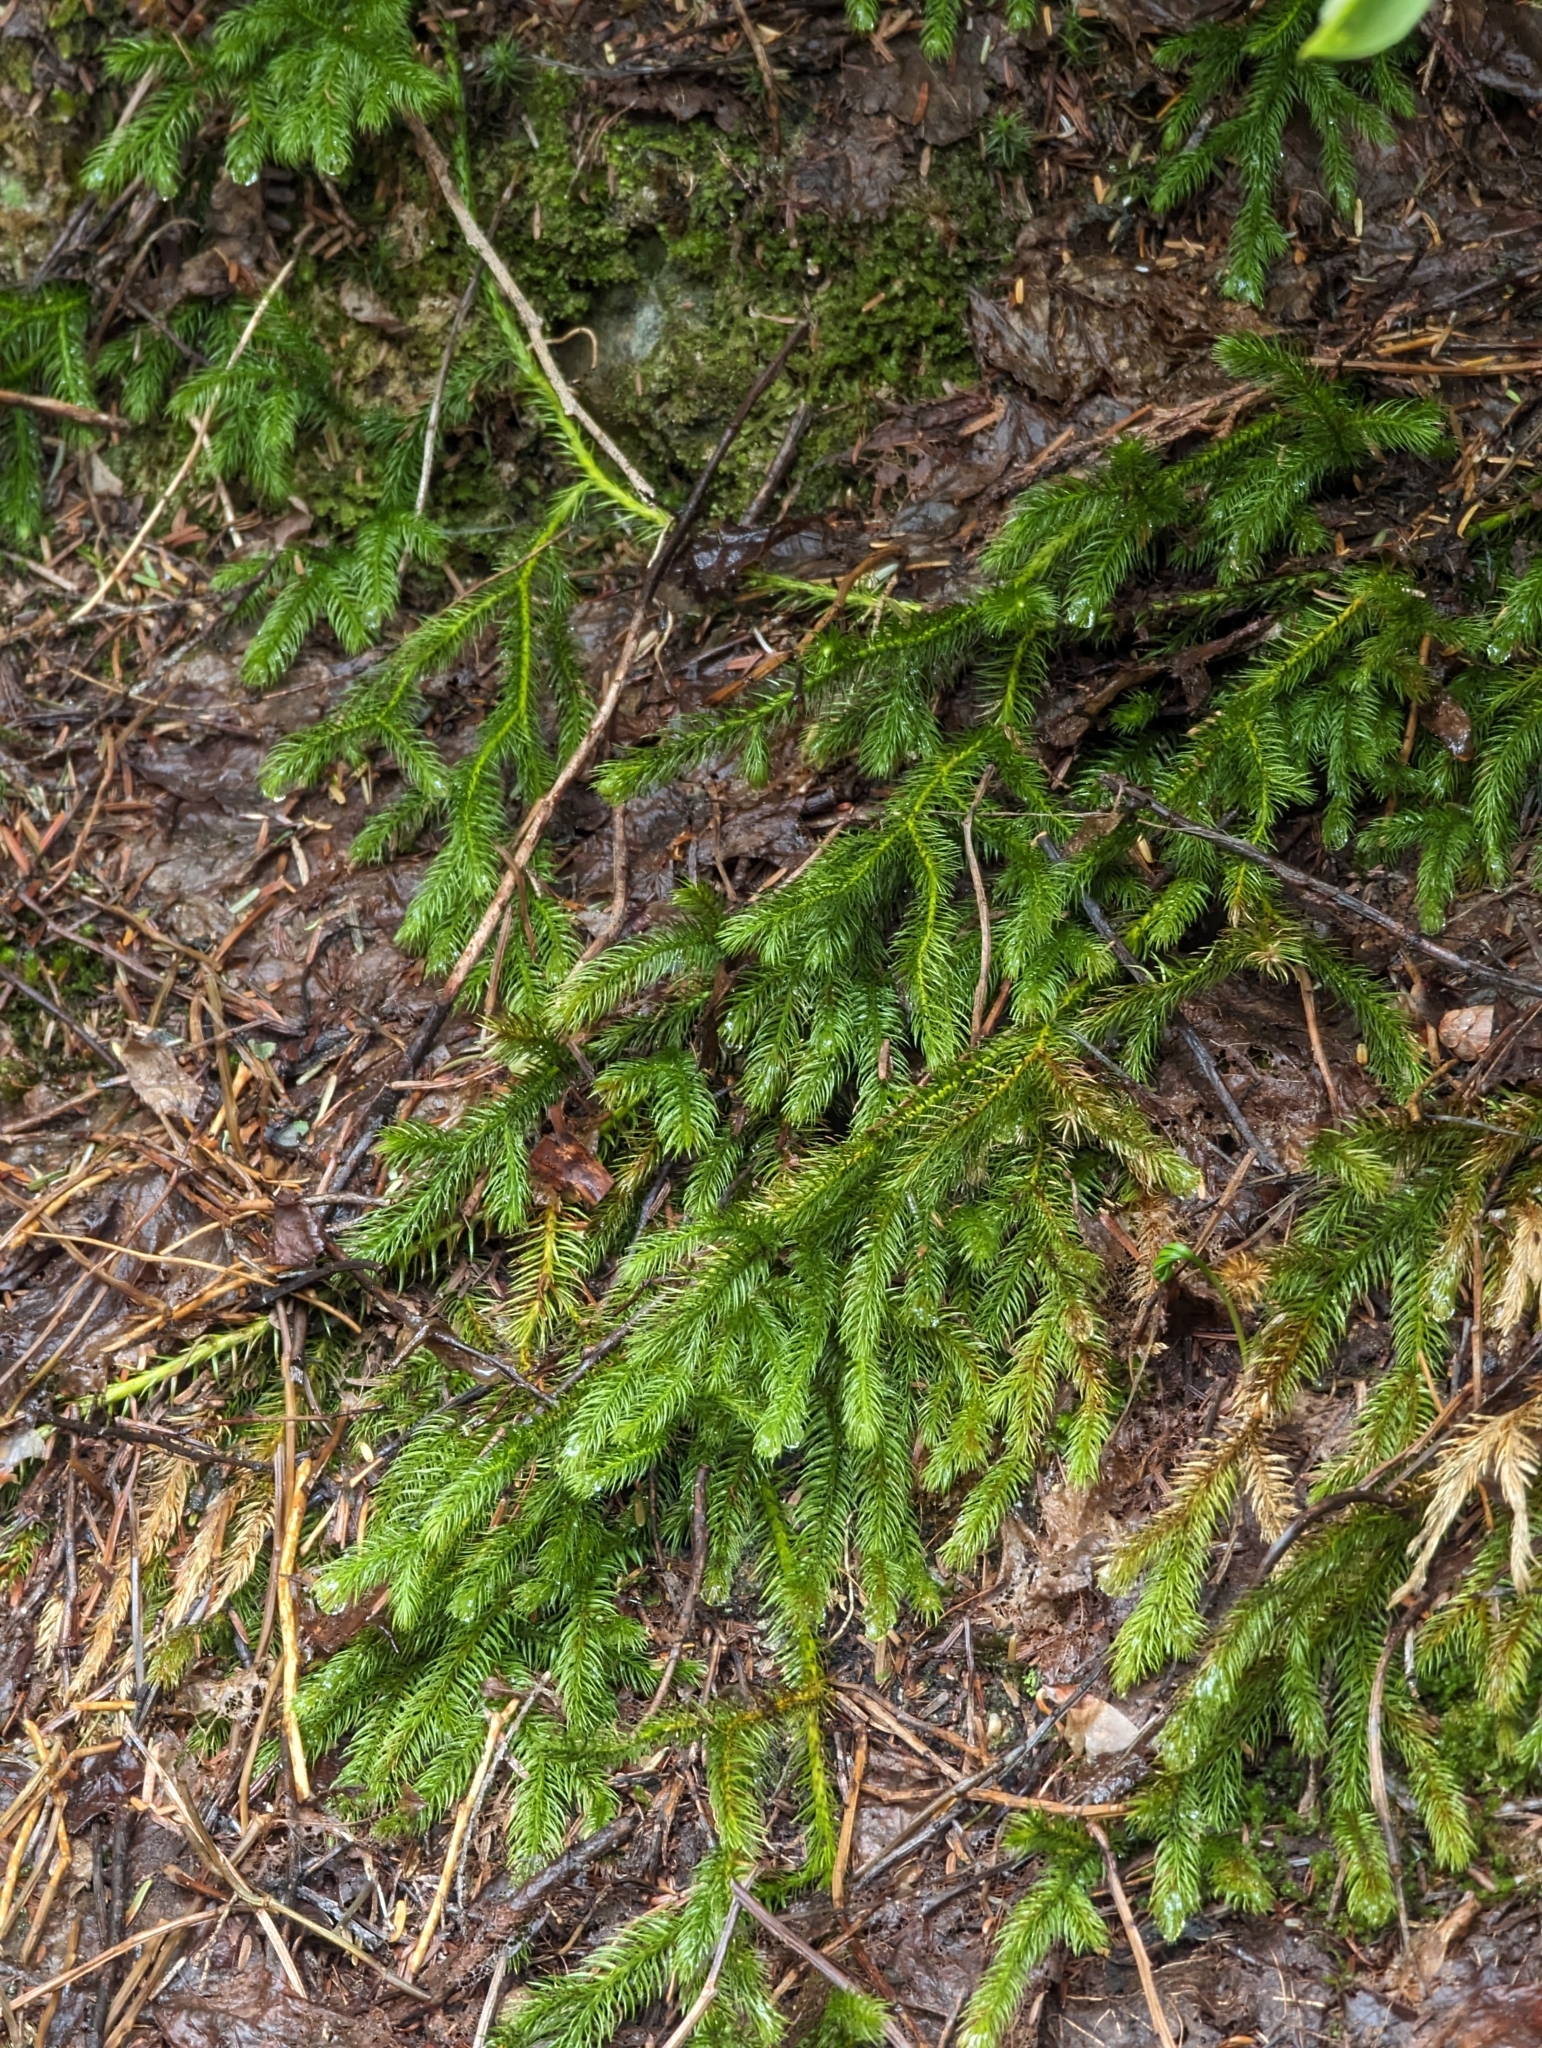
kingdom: Plantae
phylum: Tracheophyta
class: Lycopodiopsida
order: Lycopodiales
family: Lycopodiaceae
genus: Lycopodium
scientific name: Lycopodium clavatum
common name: Stag's-horn clubmoss
